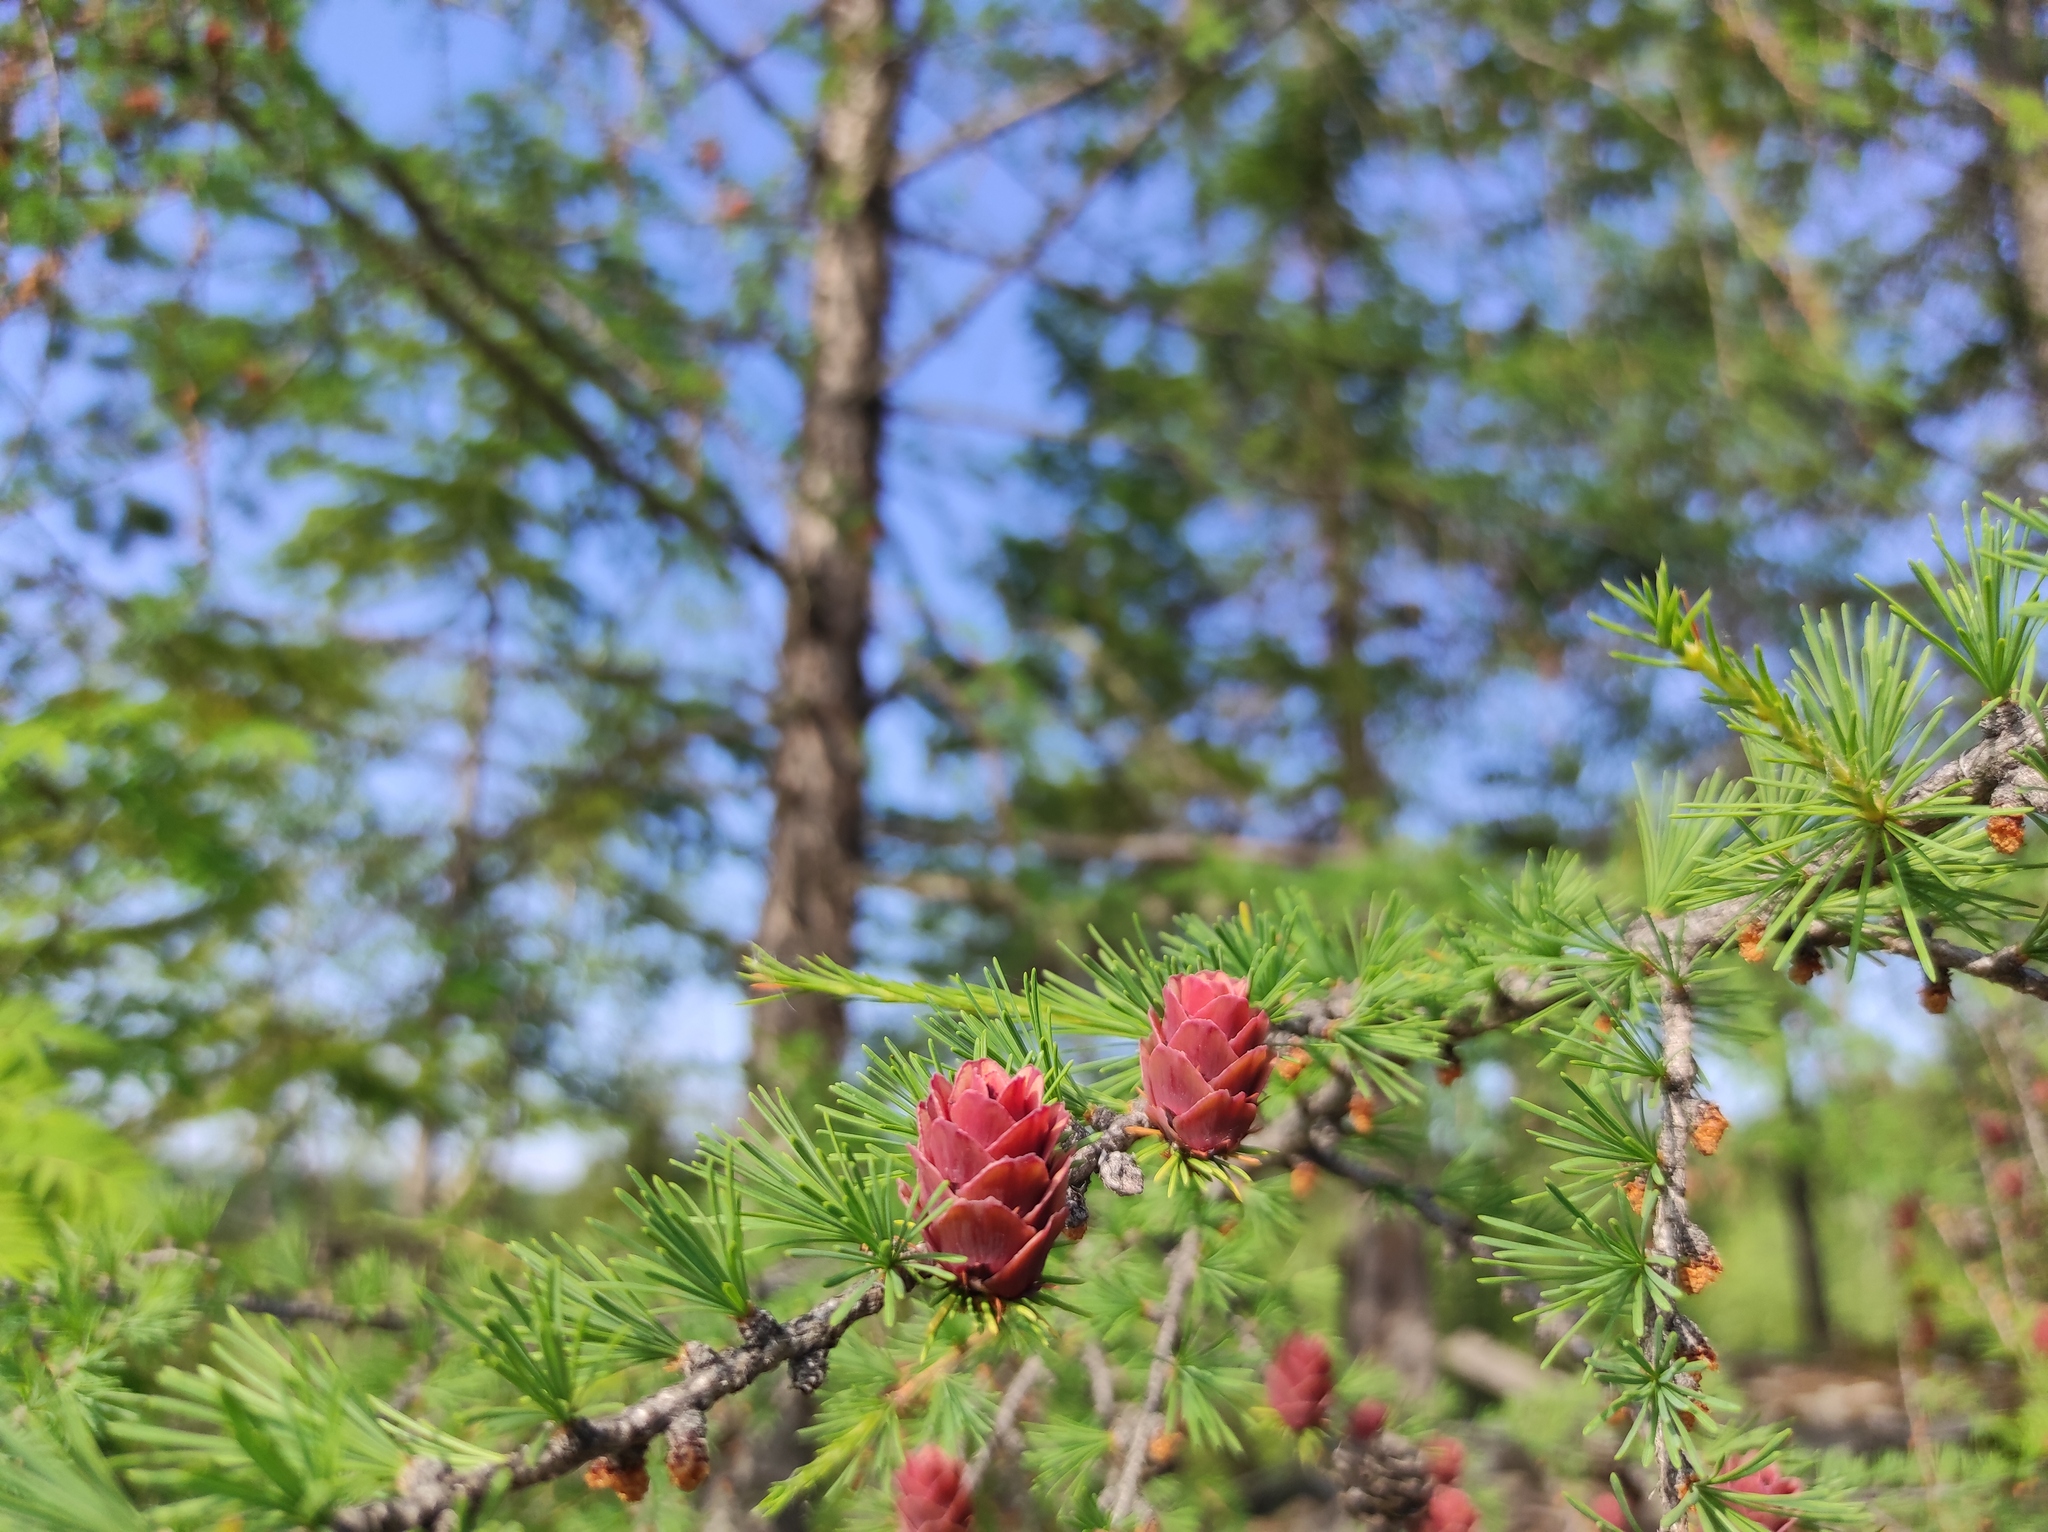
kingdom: Plantae
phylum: Tracheophyta
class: Pinopsida
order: Pinales
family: Pinaceae
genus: Larix
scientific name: Larix gmelinii
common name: Dahurian larch
